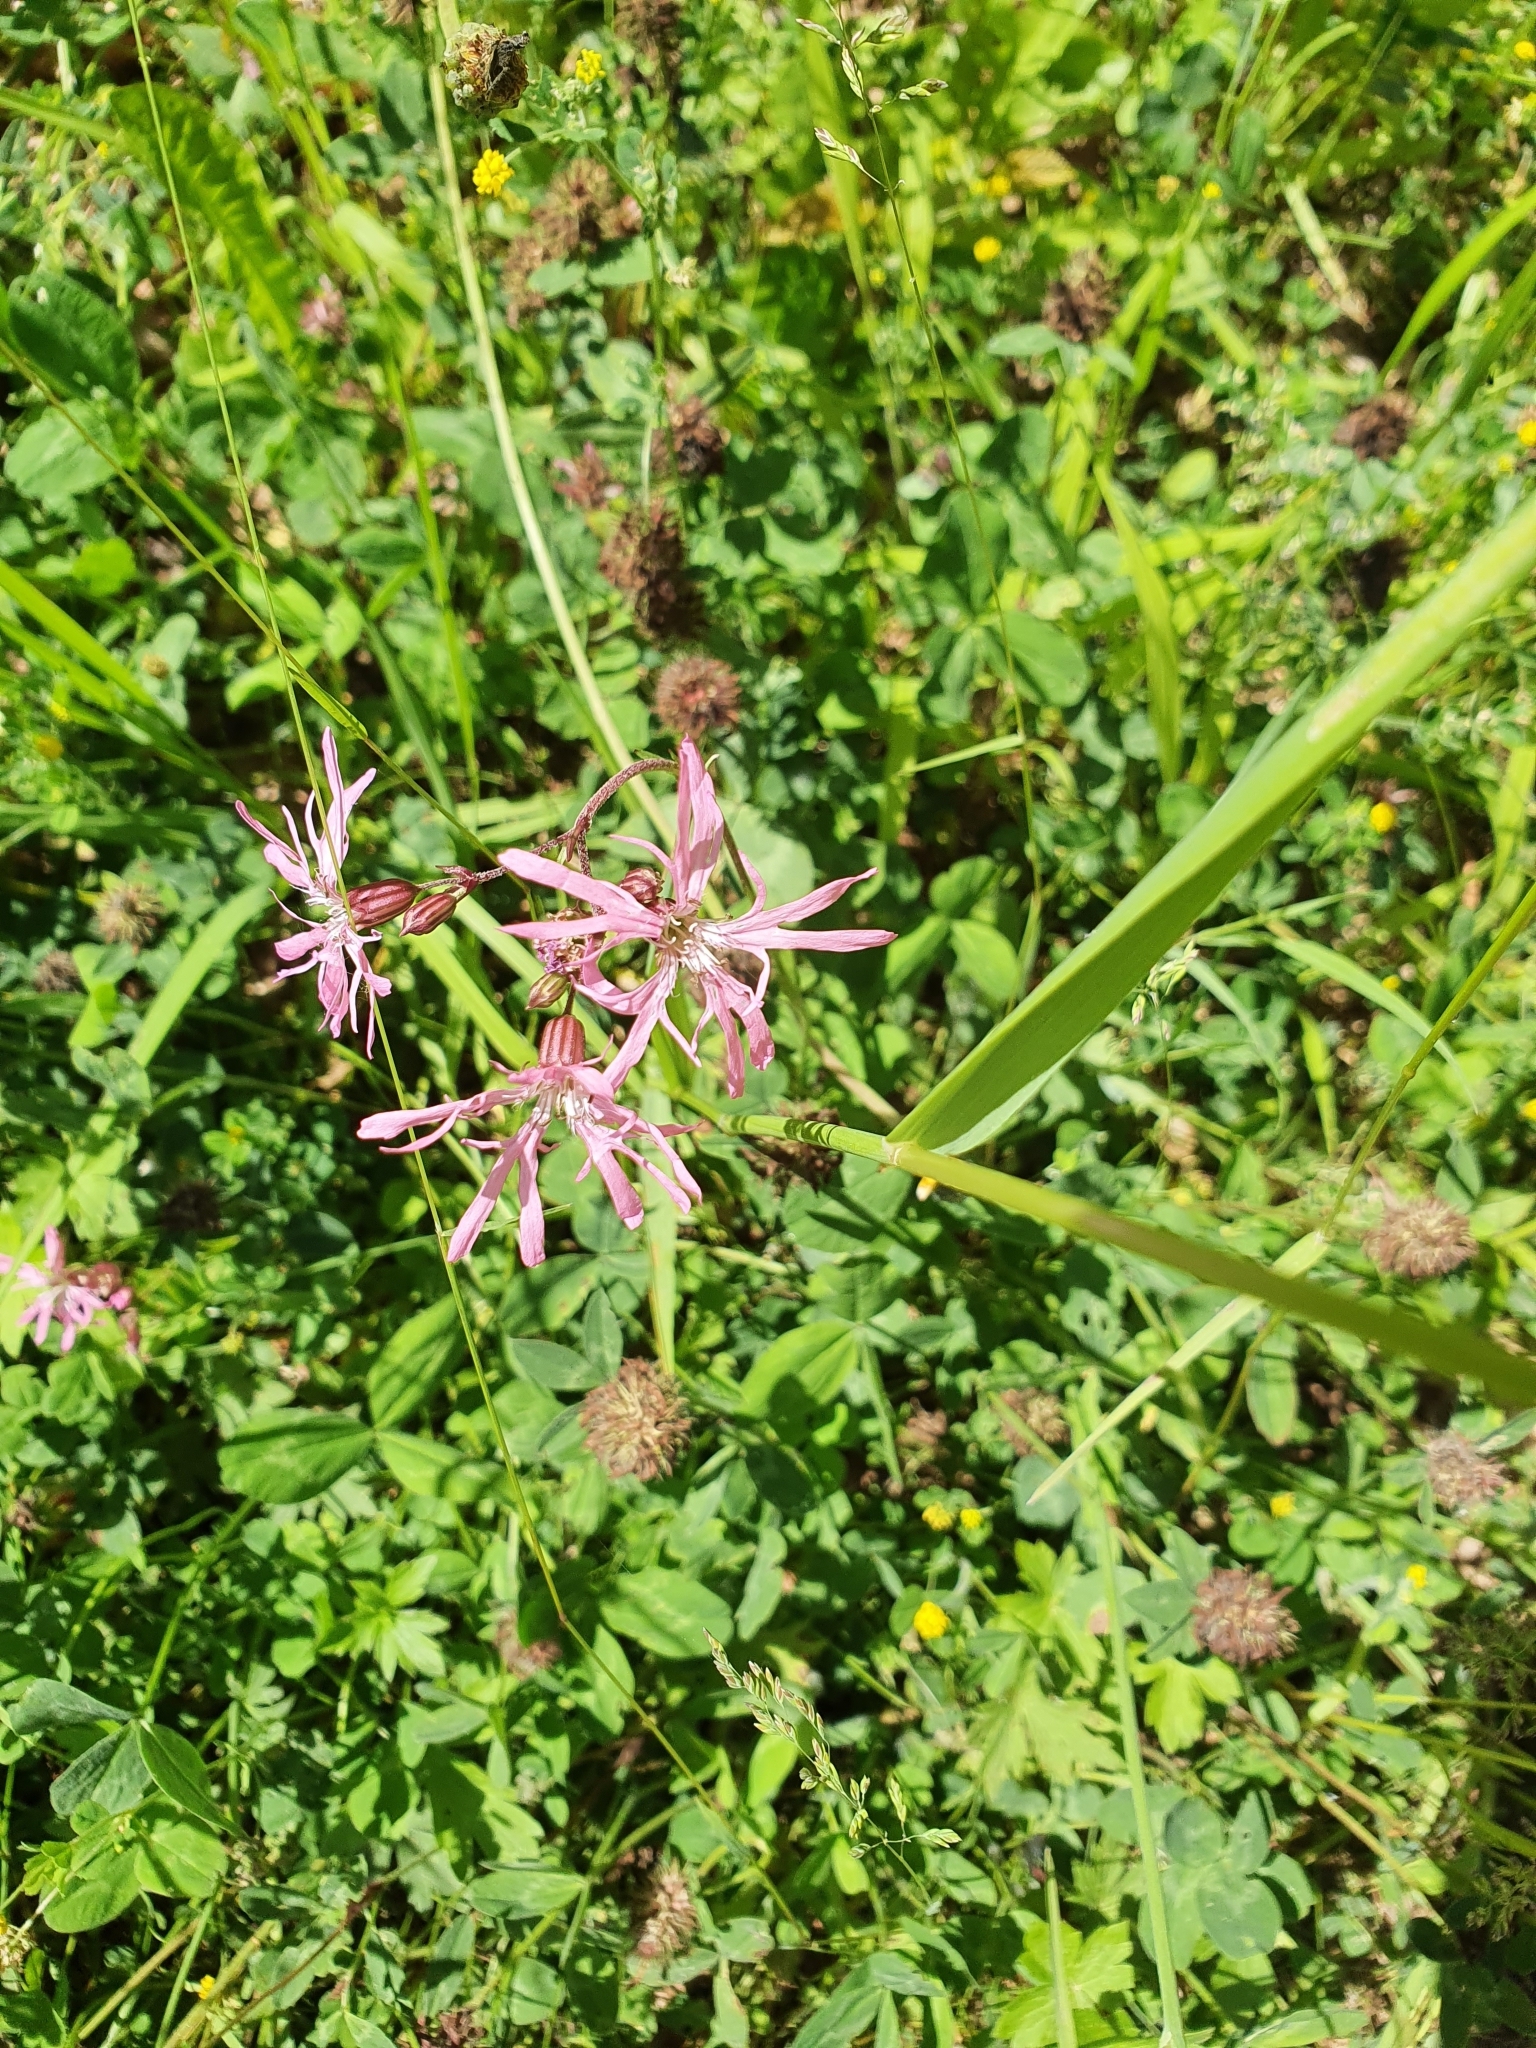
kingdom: Plantae
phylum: Tracheophyta
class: Magnoliopsida
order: Caryophyllales
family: Caryophyllaceae
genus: Silene
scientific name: Silene flos-cuculi
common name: Ragged-robin
